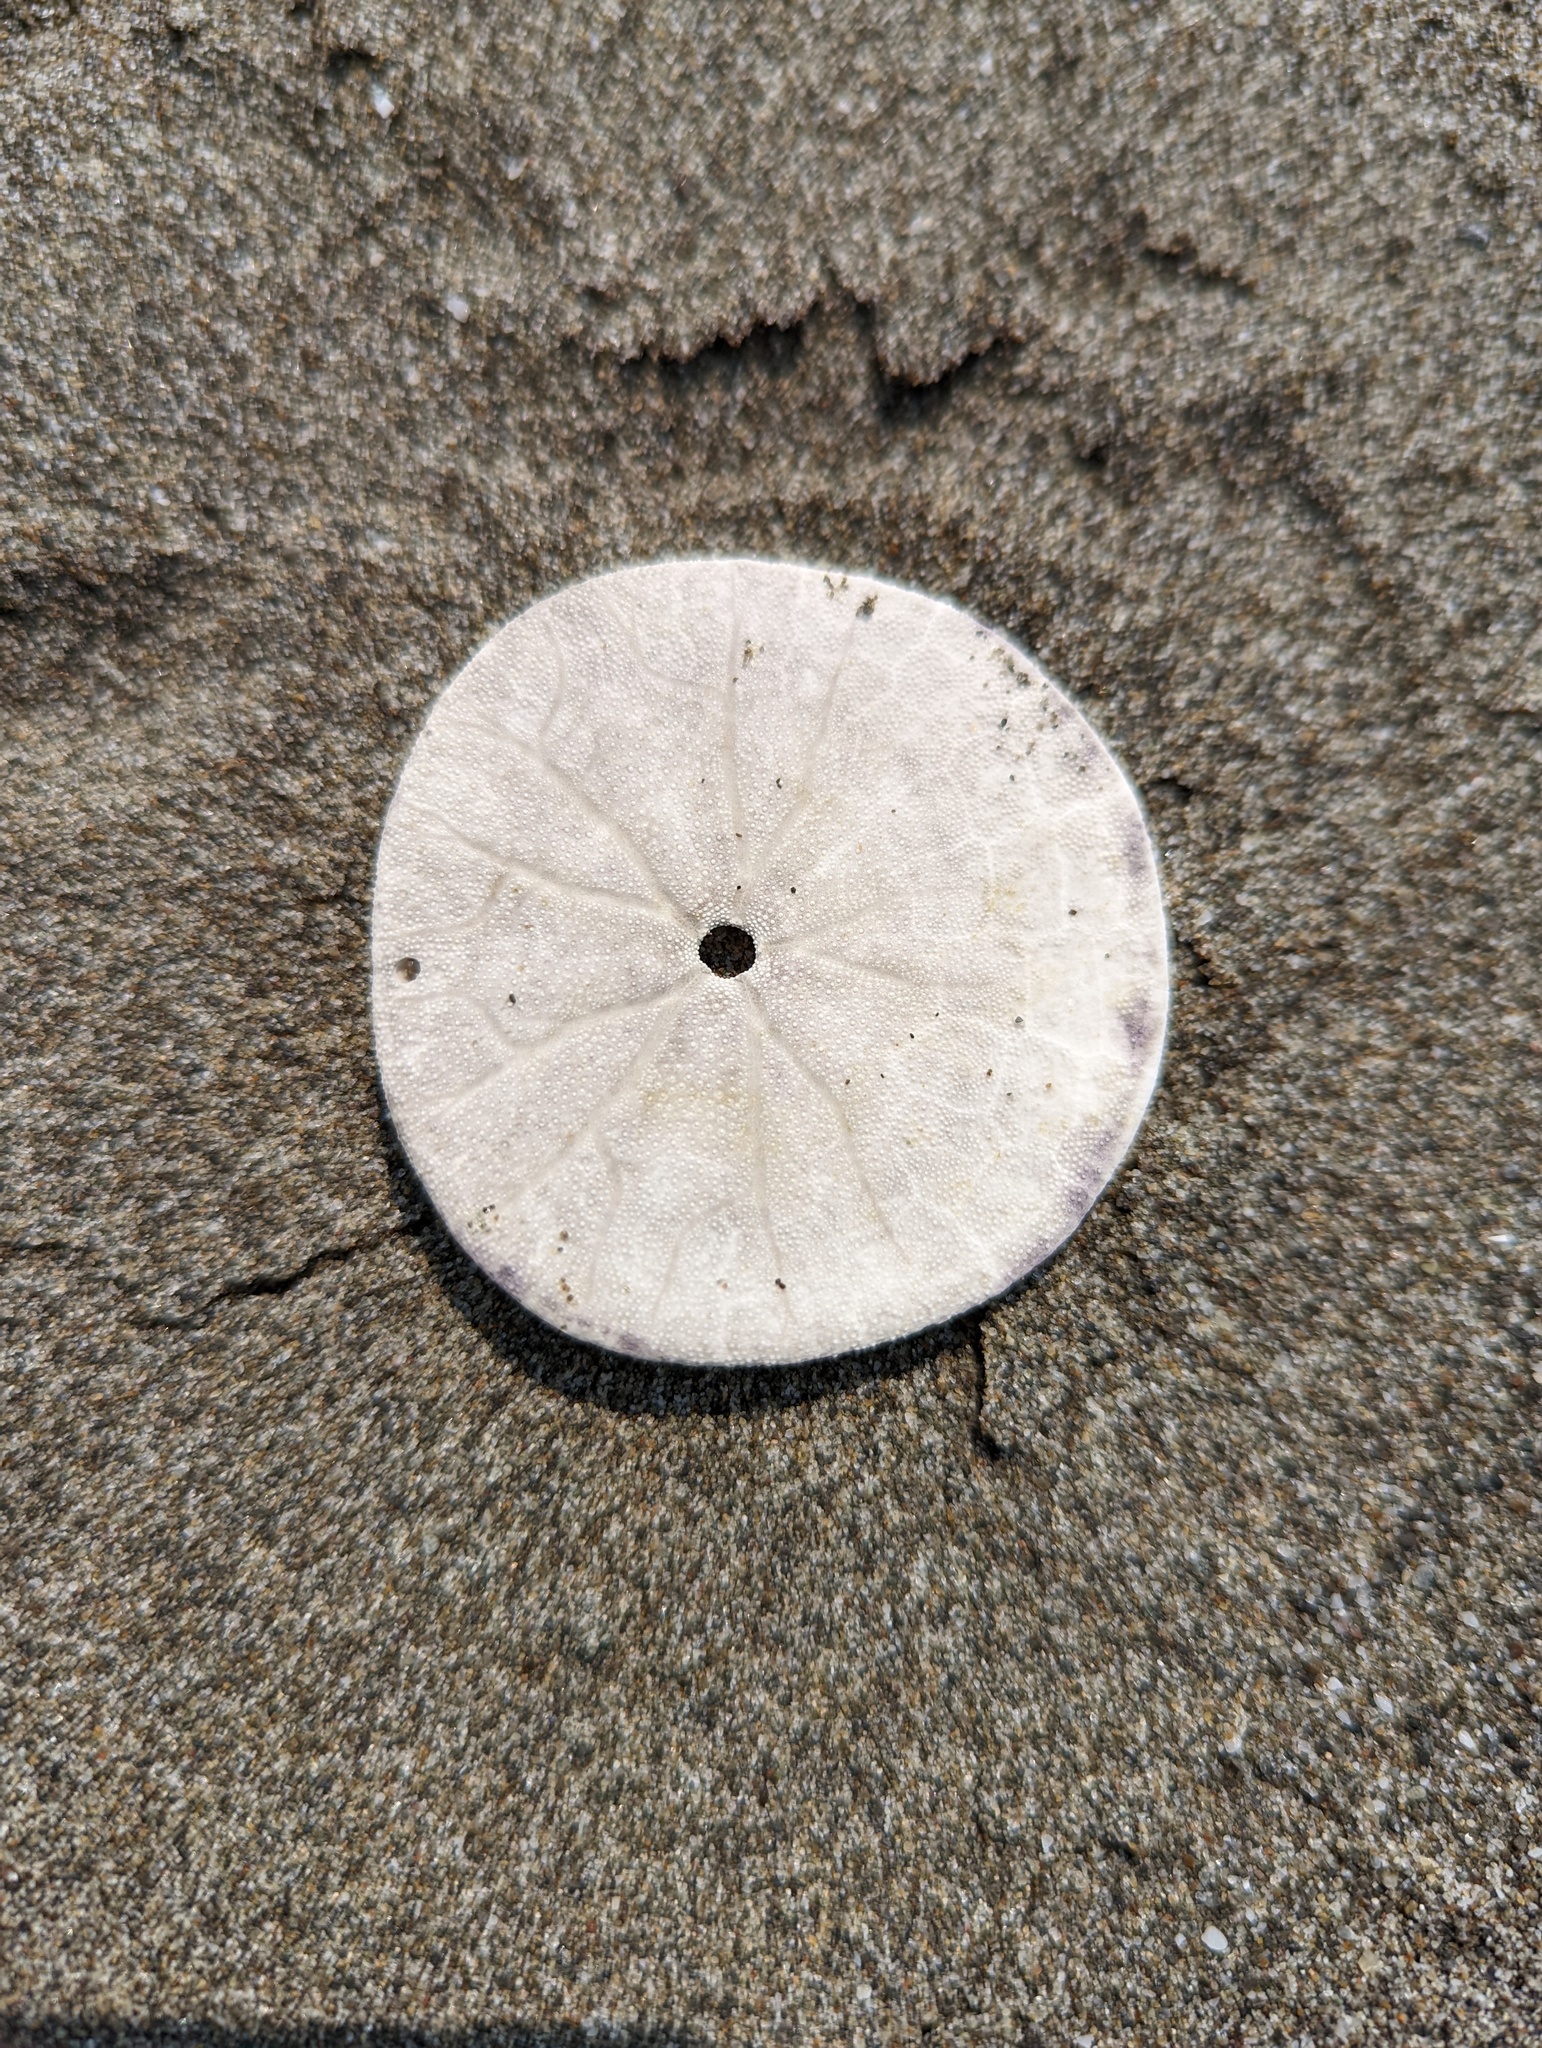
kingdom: Animalia
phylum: Echinodermata
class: Echinoidea
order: Echinolampadacea
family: Dendrasteridae
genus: Dendraster
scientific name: Dendraster excentricus
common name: Eccentric sand dollar sea urchin
